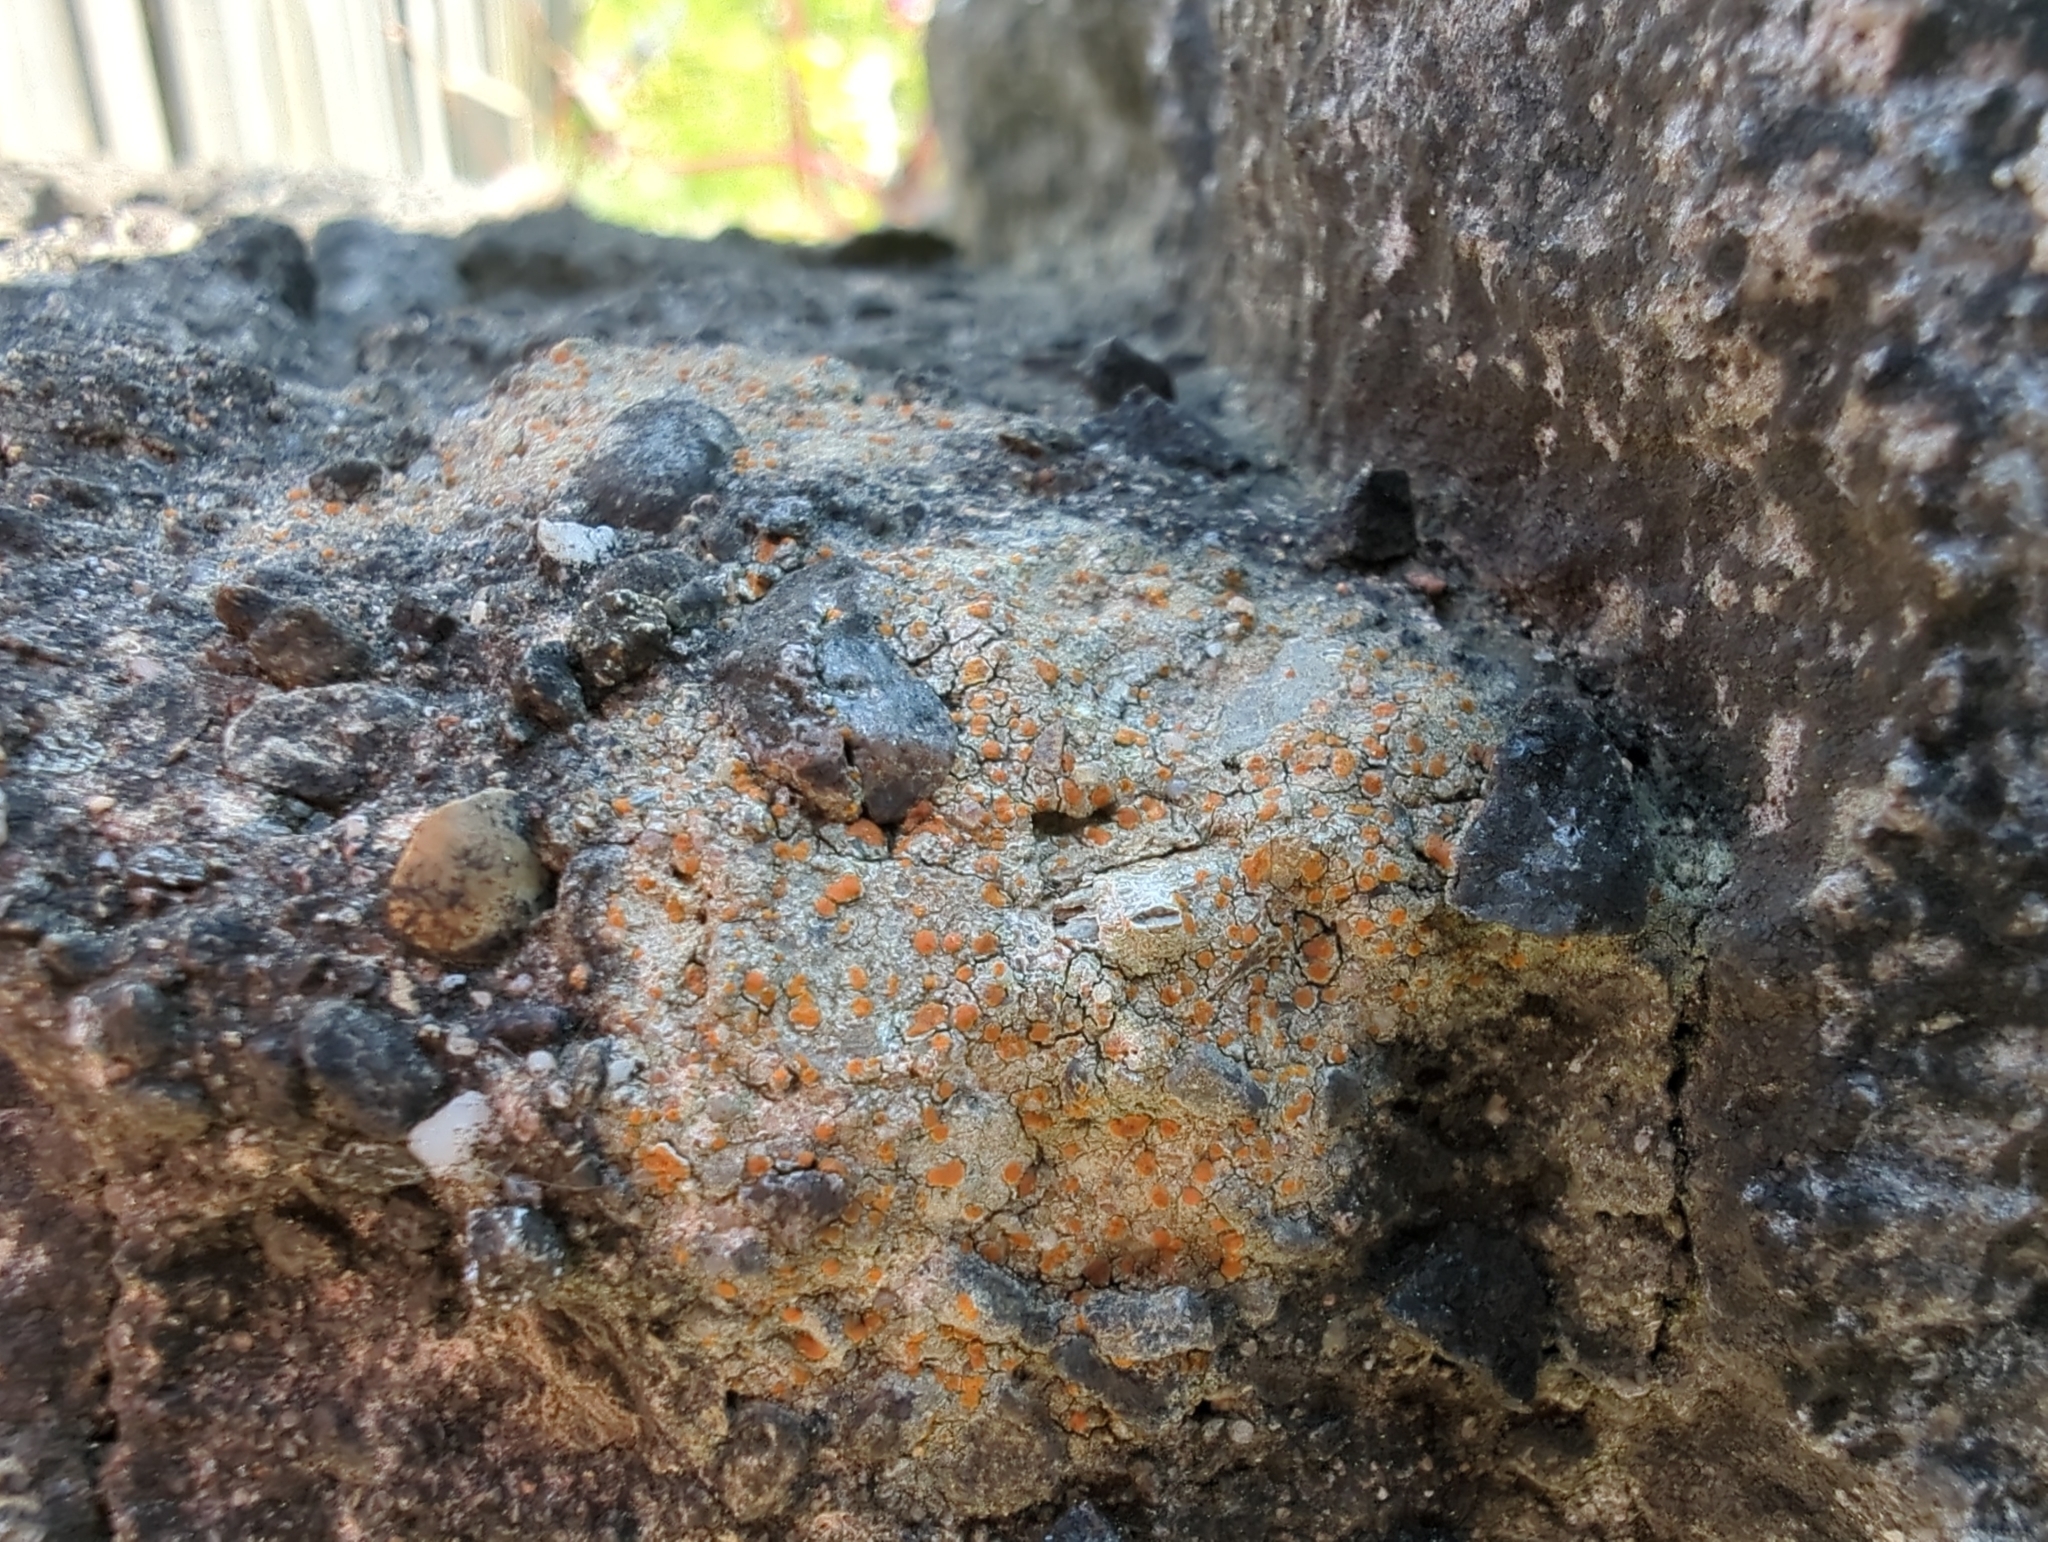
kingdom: Fungi
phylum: Ascomycota
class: Lecanoromycetes
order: Lecanorales
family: Psoraceae
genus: Protoblastenia
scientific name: Protoblastenia rupestris
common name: Chewing gum lichen
